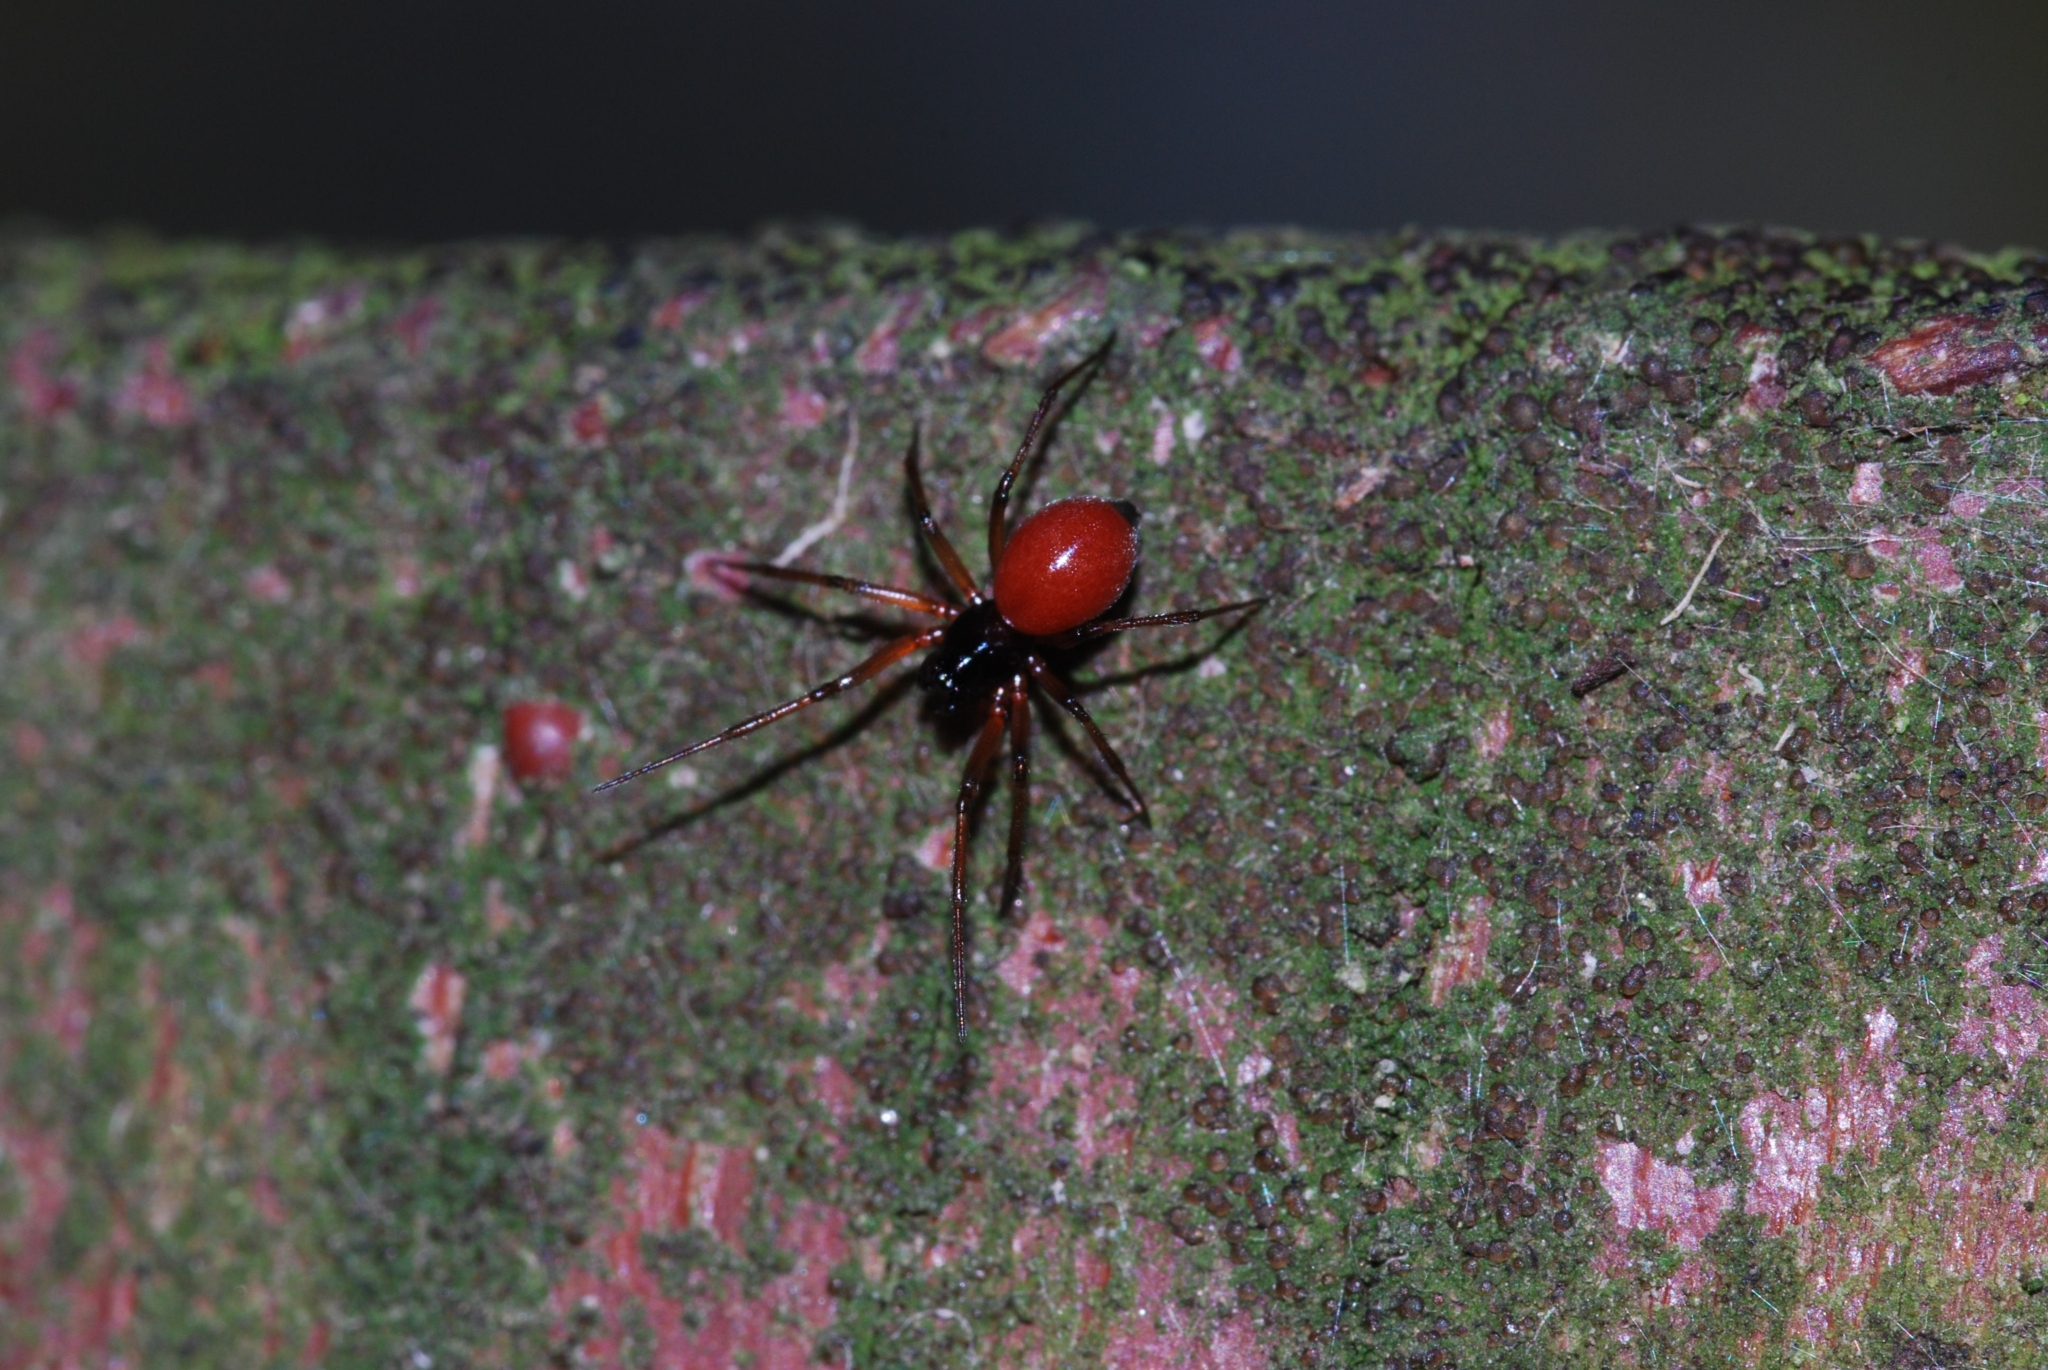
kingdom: Animalia
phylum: Arthropoda
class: Arachnida
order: Araneae
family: Linyphiidae
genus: Ostearius
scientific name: Ostearius melanopygius
